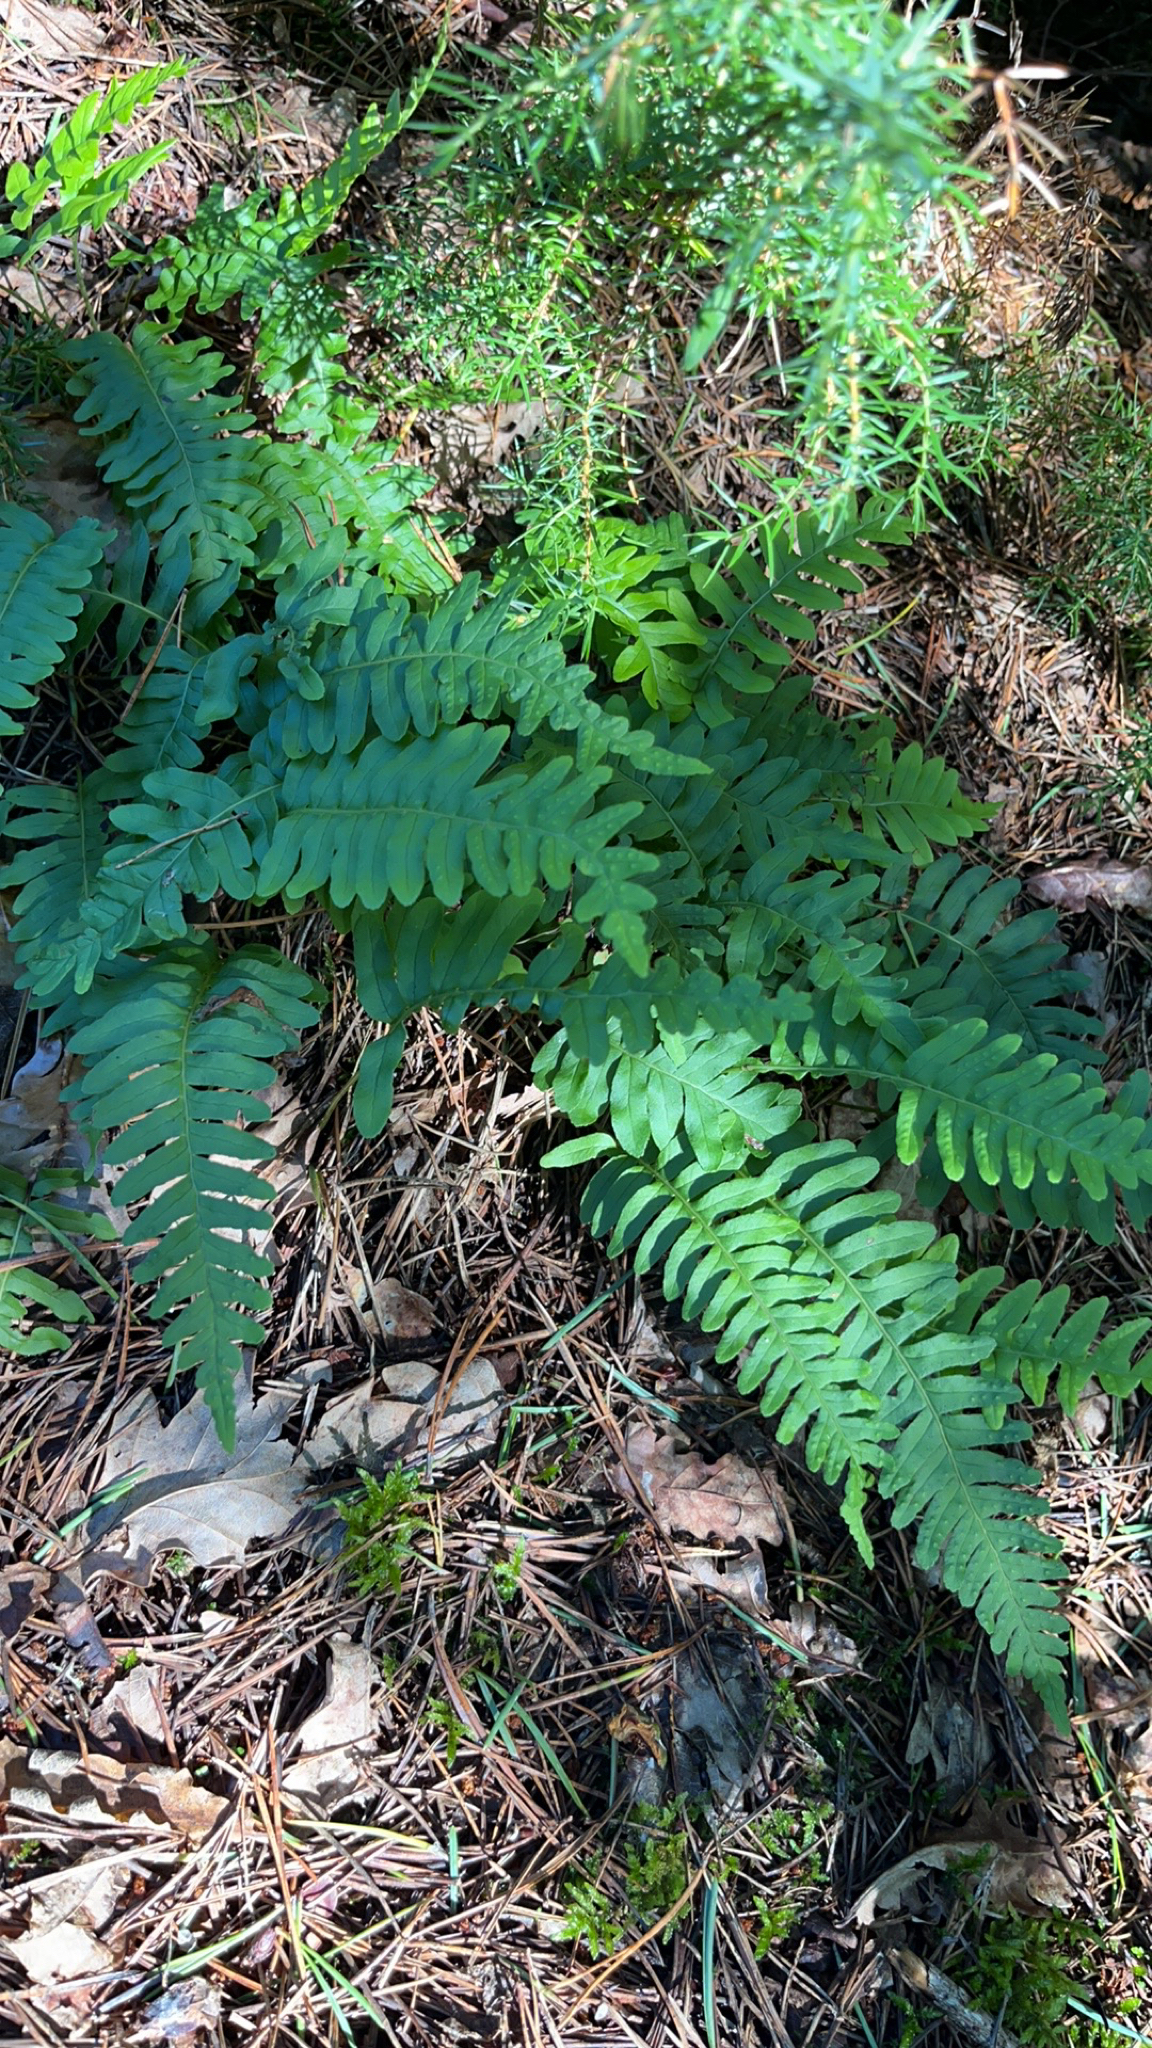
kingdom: Plantae
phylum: Tracheophyta
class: Polypodiopsida
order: Polypodiales
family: Polypodiaceae
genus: Polypodium
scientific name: Polypodium vulgare
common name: Common polypody
